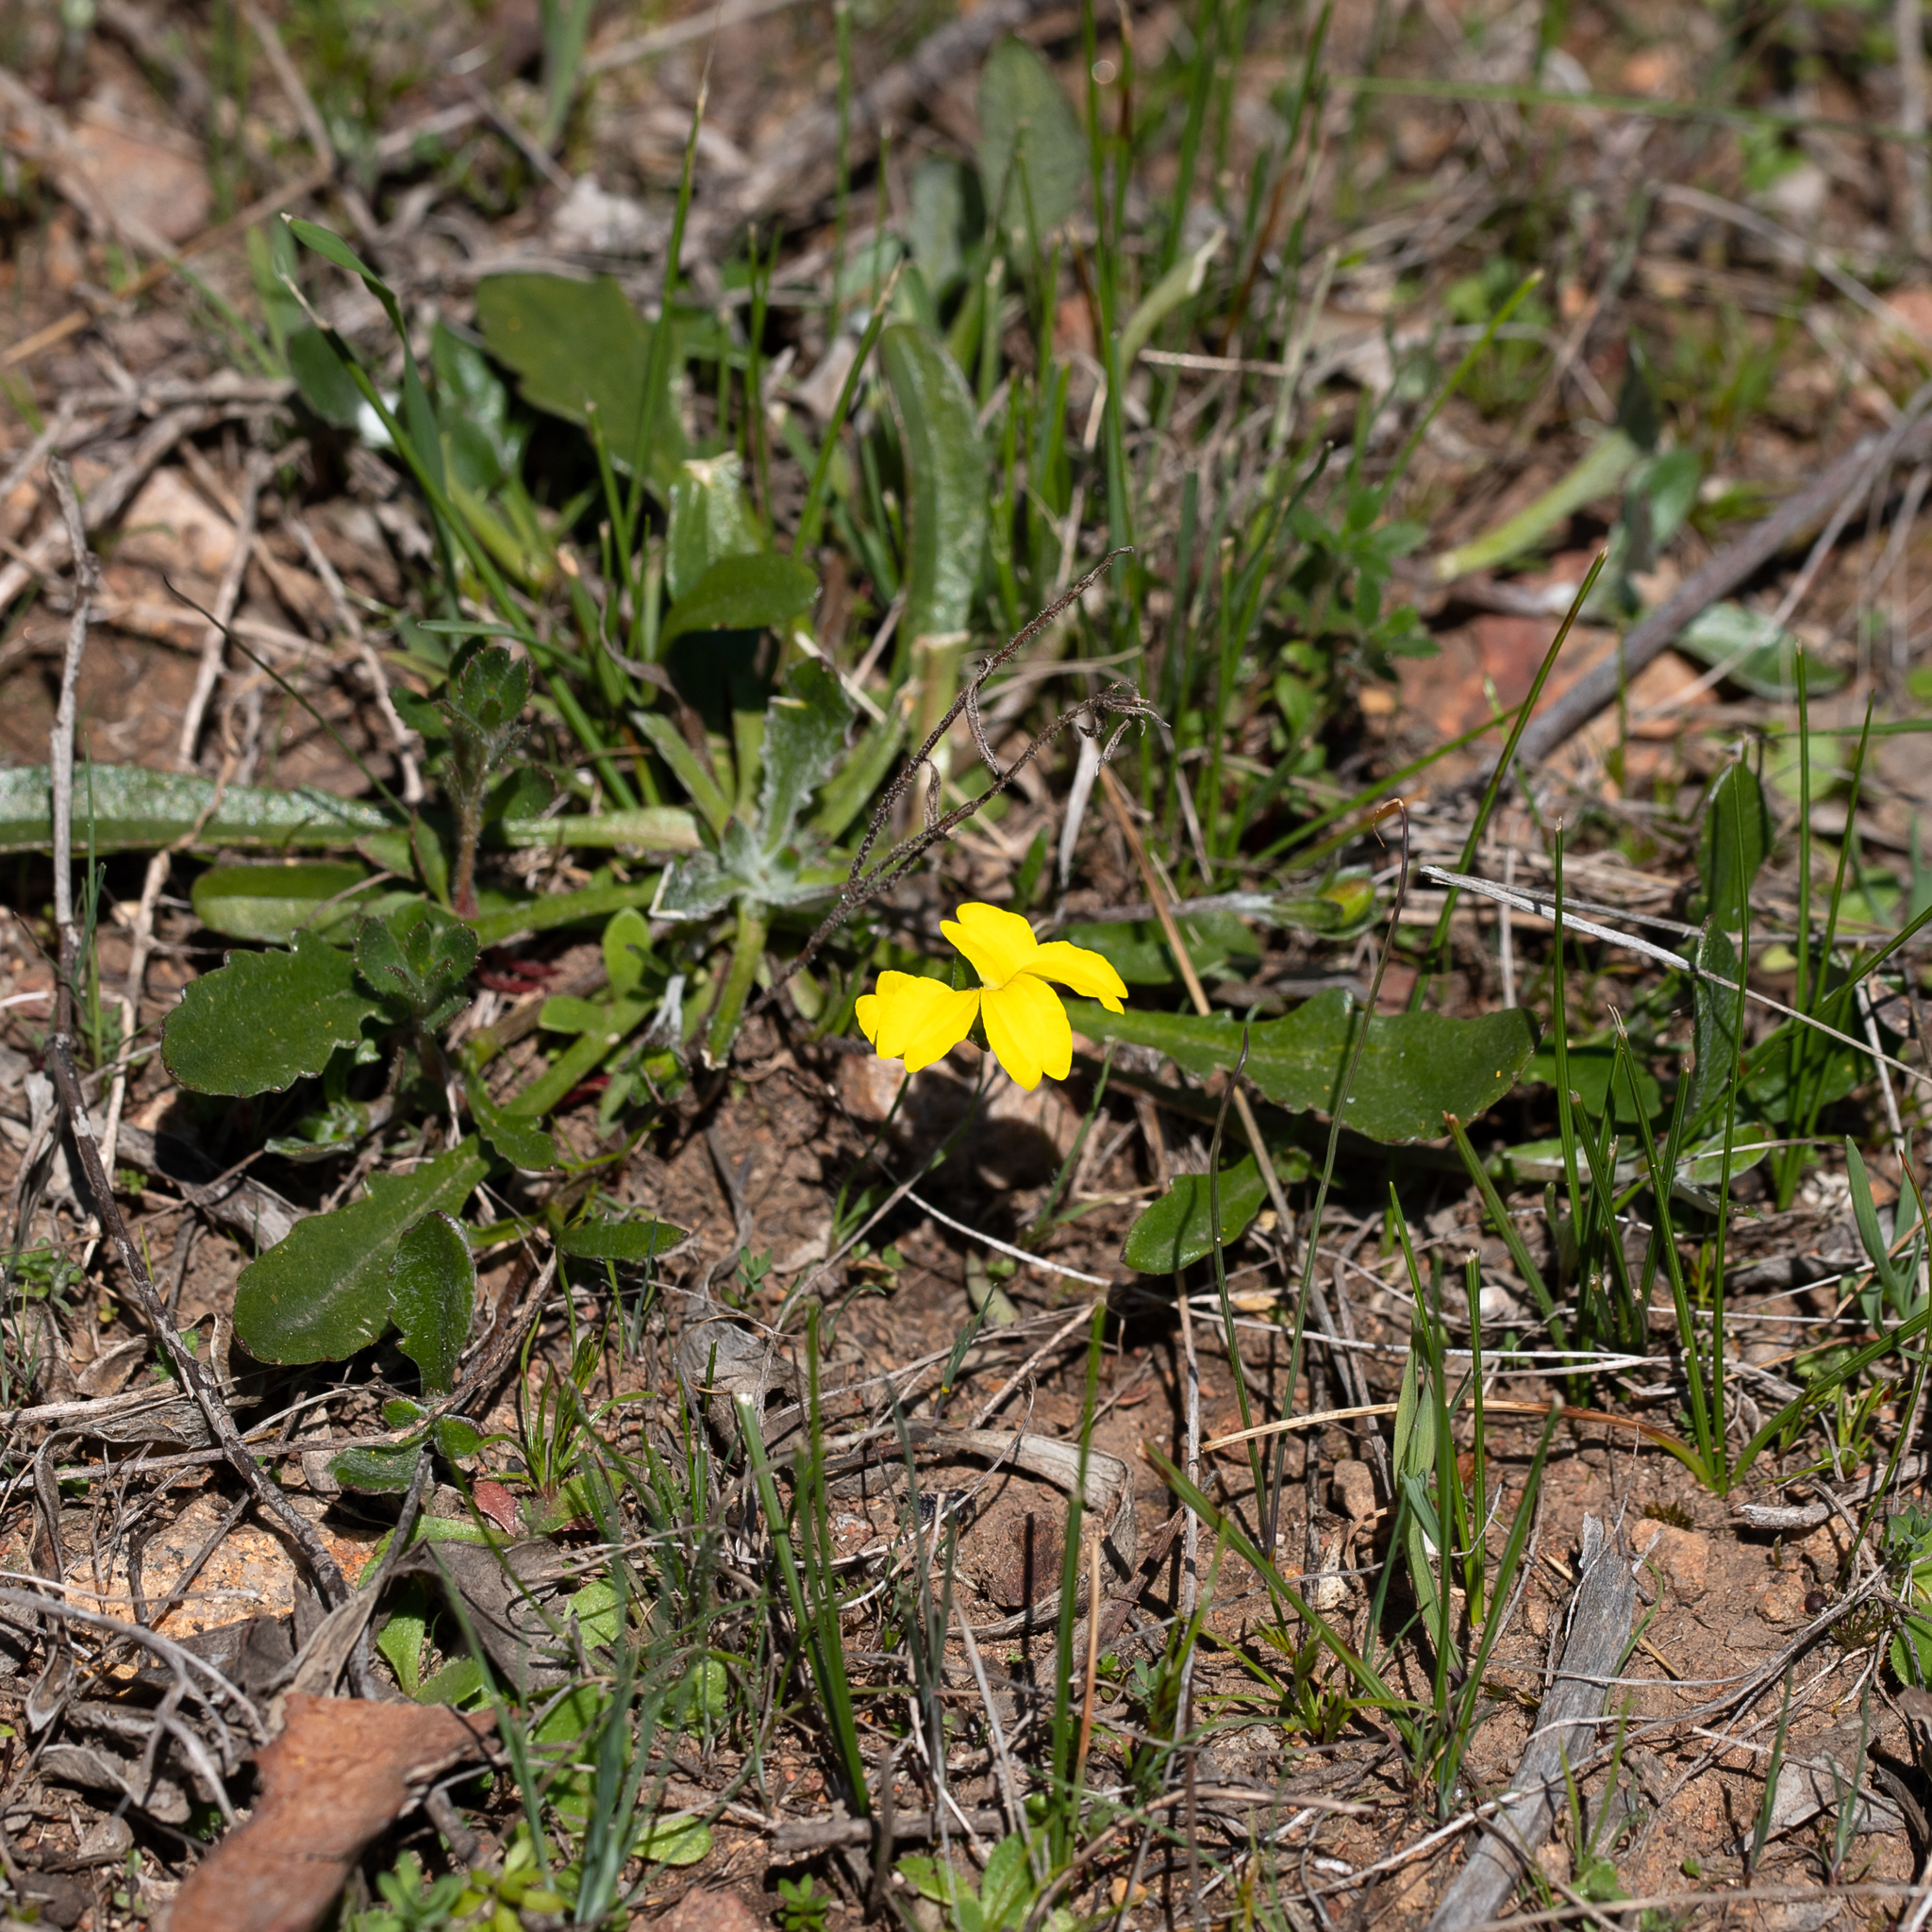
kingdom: Plantae
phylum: Tracheophyta
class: Magnoliopsida
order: Asterales
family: Goodeniaceae
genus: Goodenia
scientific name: Goodenia geniculata
